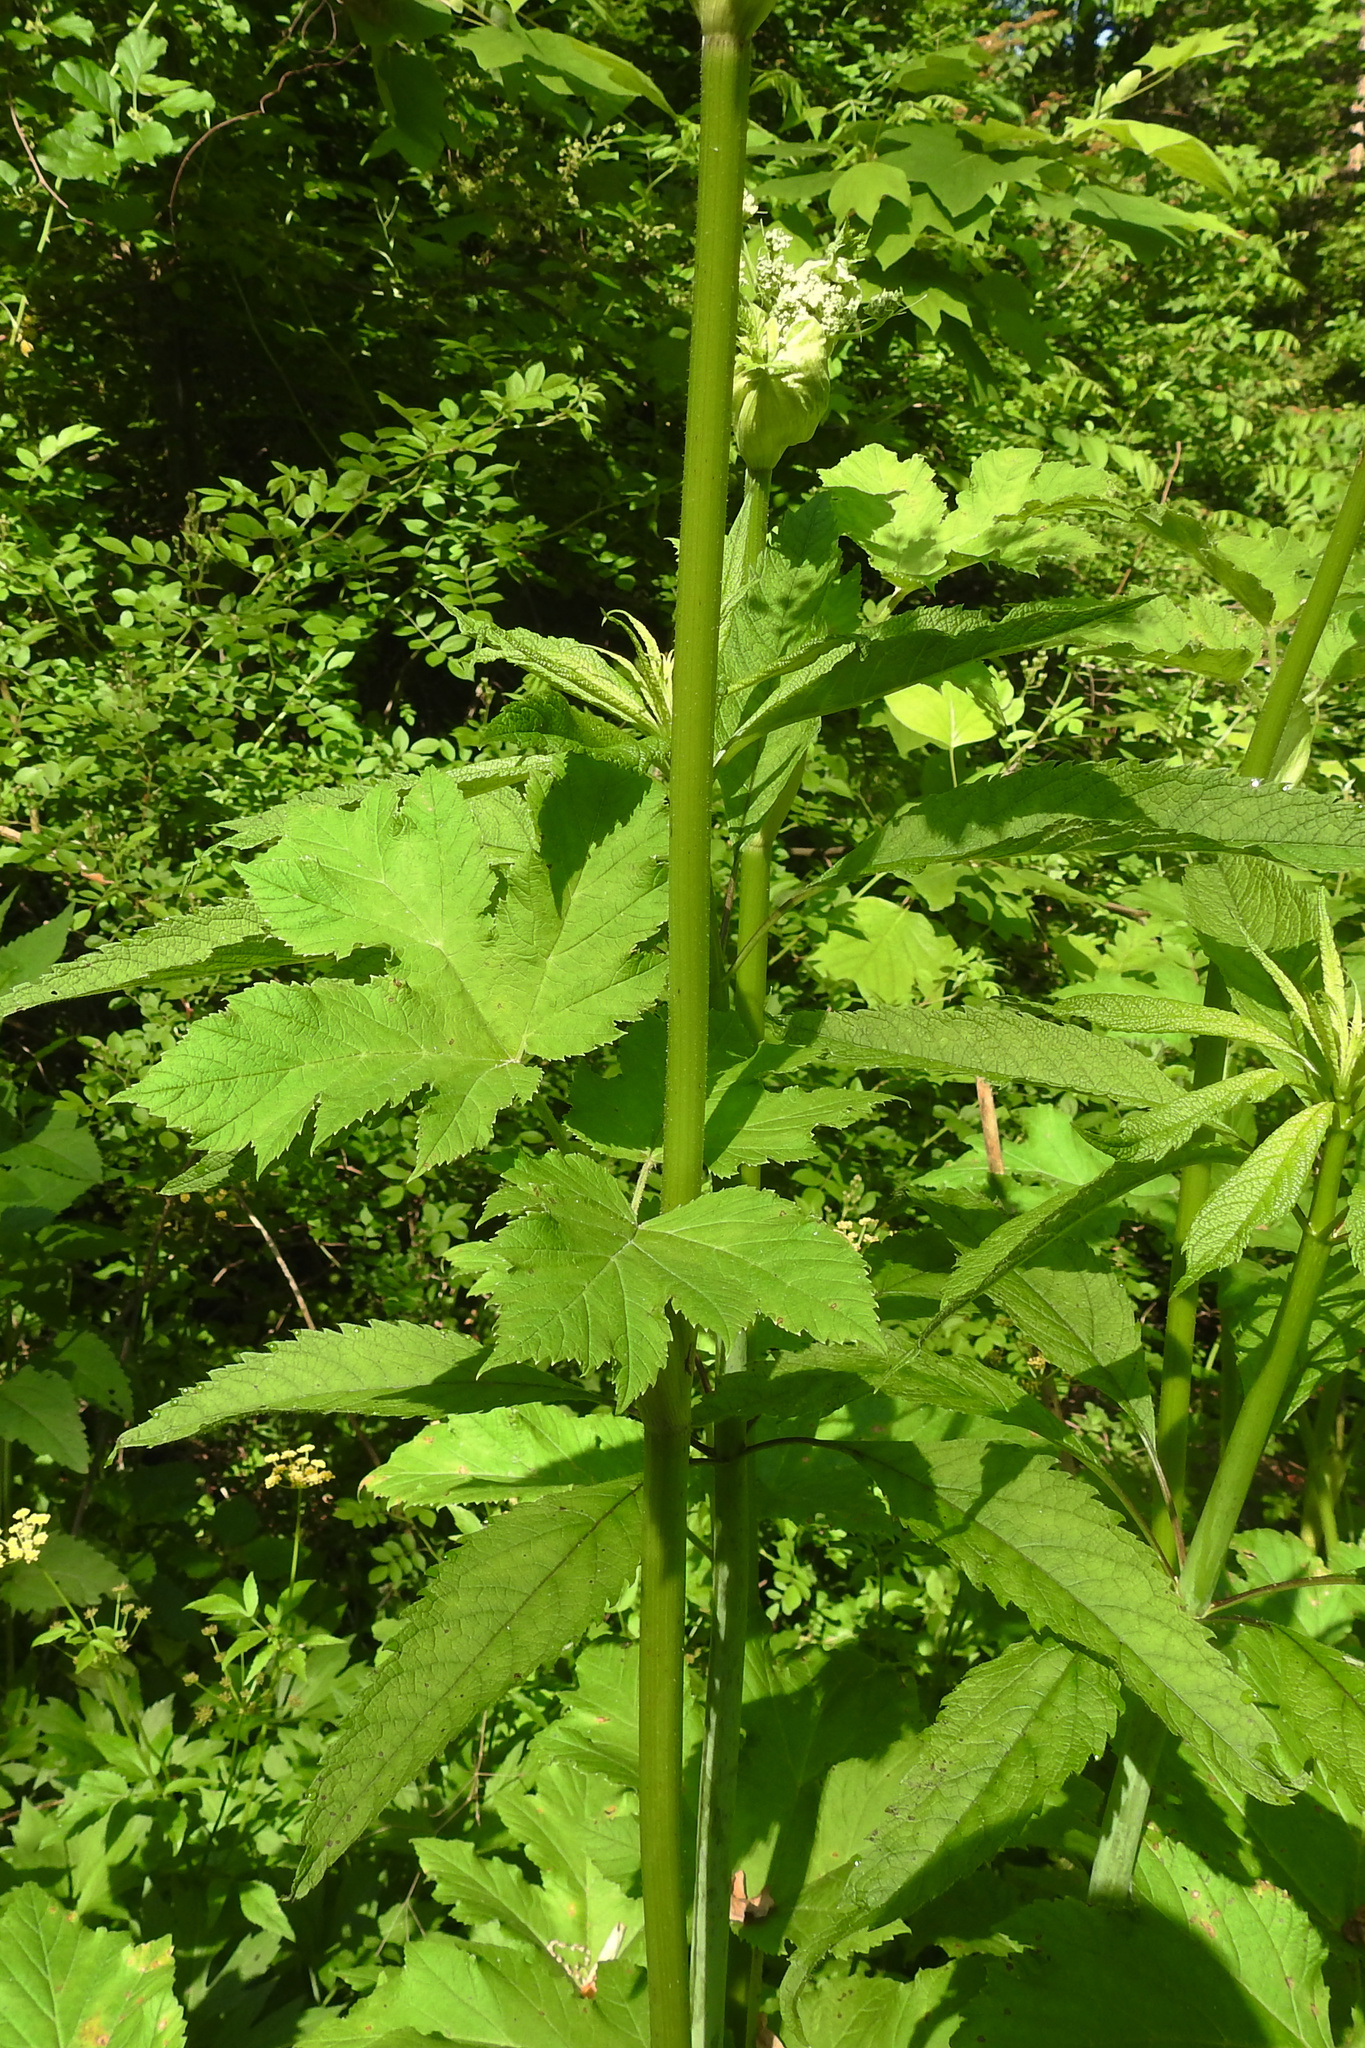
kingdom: Plantae
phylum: Tracheophyta
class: Magnoliopsida
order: Apiales
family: Apiaceae
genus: Heracleum
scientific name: Heracleum maximum
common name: American cow parsnip
